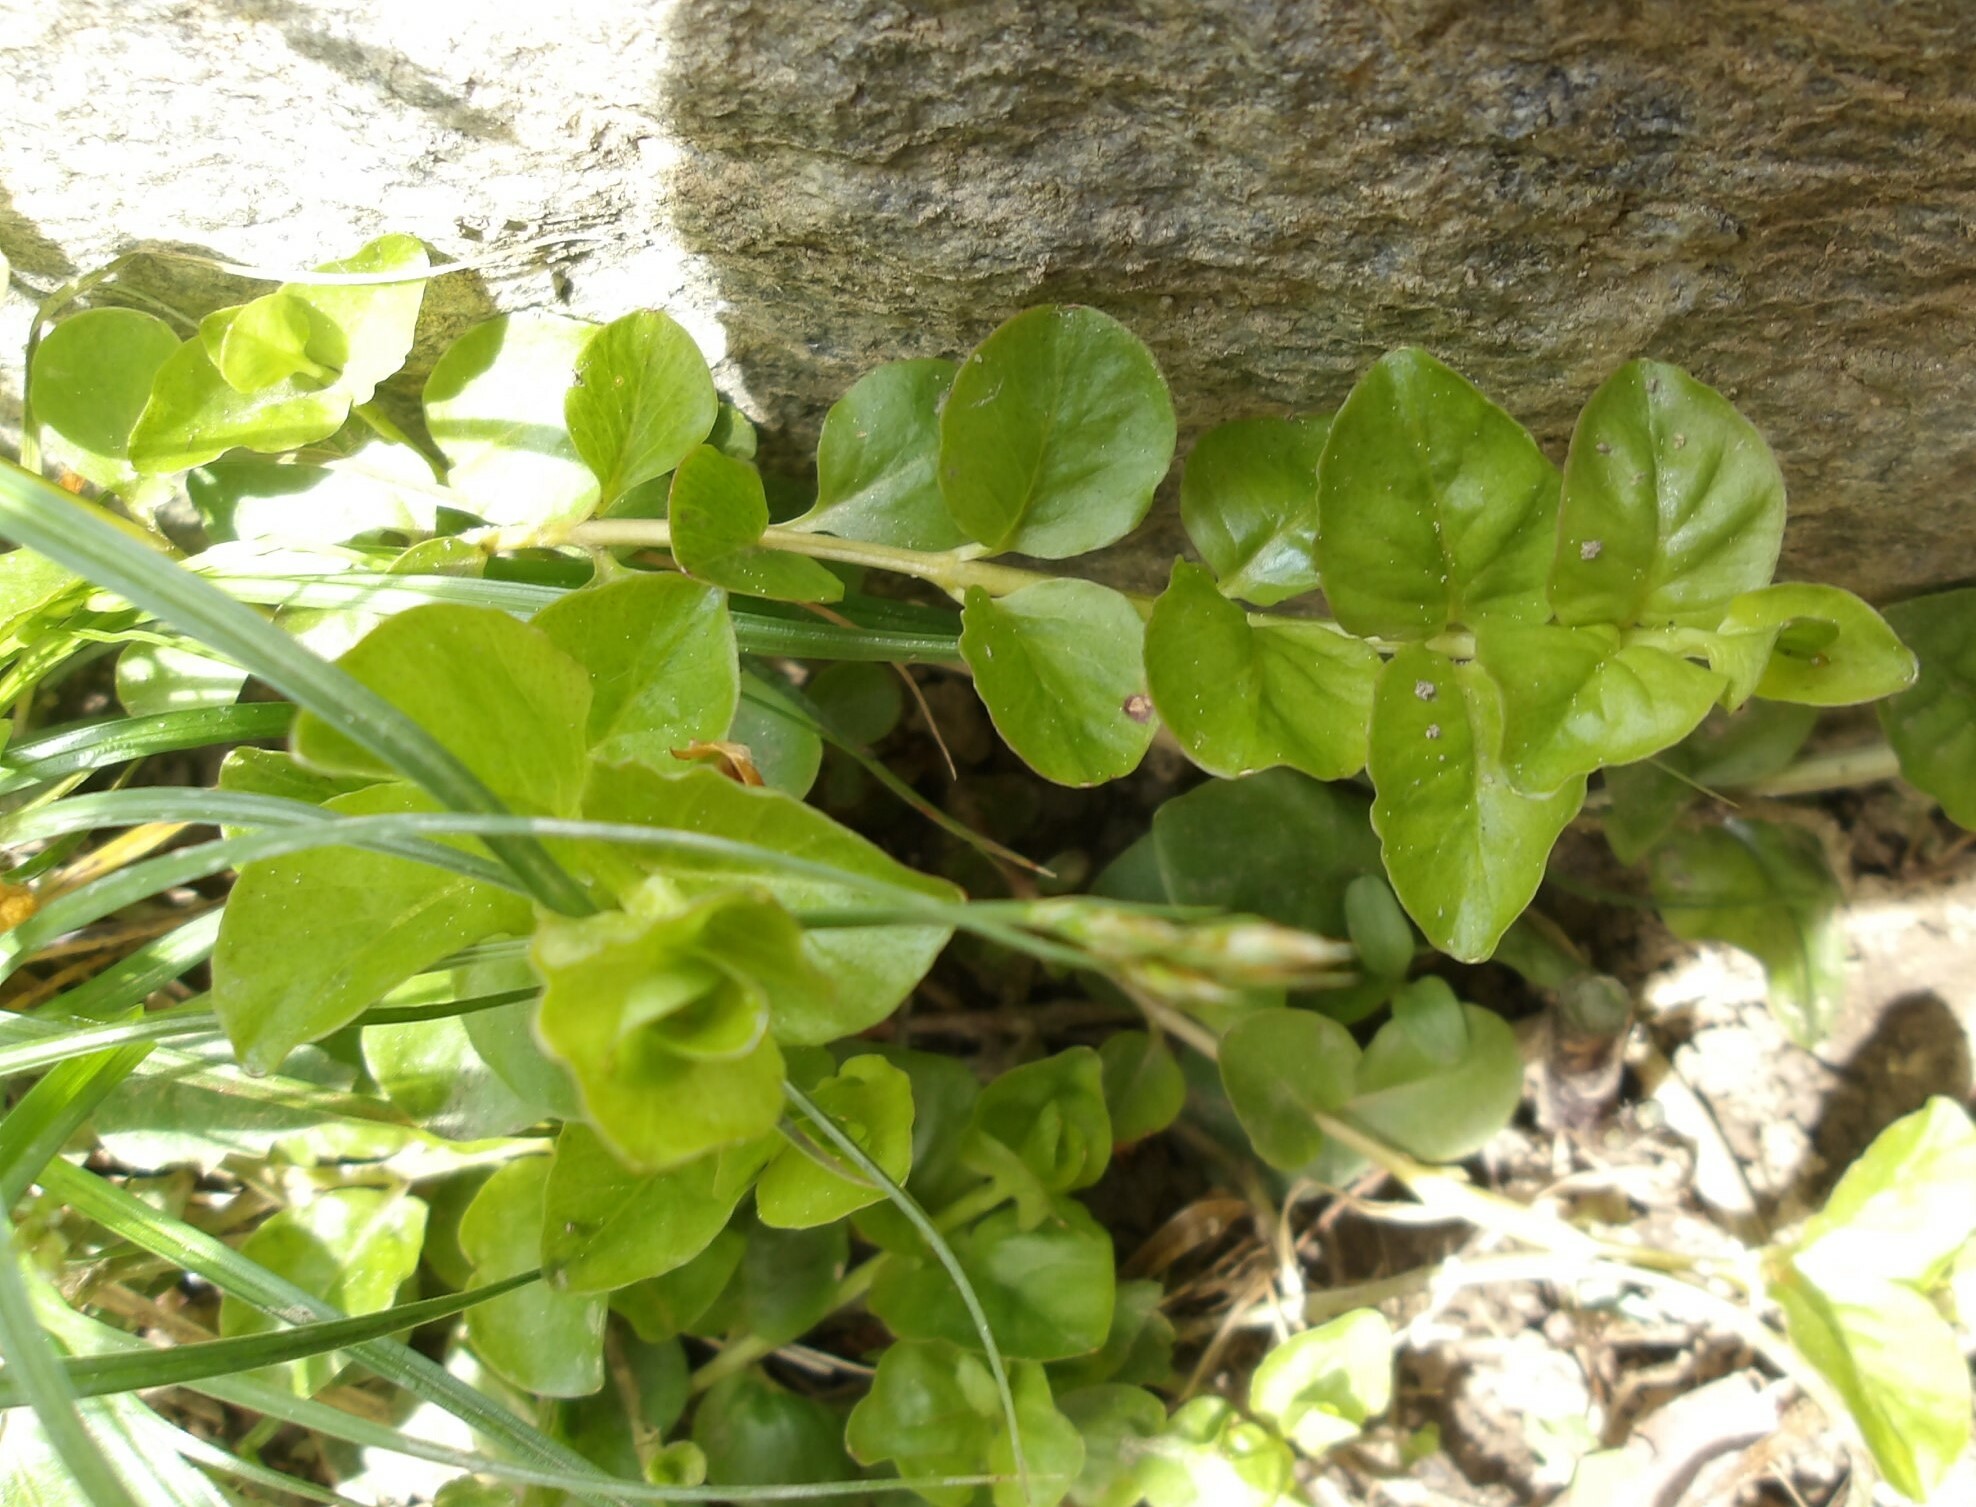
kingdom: Plantae
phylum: Tracheophyta
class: Magnoliopsida
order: Ericales
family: Primulaceae
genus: Lysimachia
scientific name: Lysimachia nummularia
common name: Moneywort
